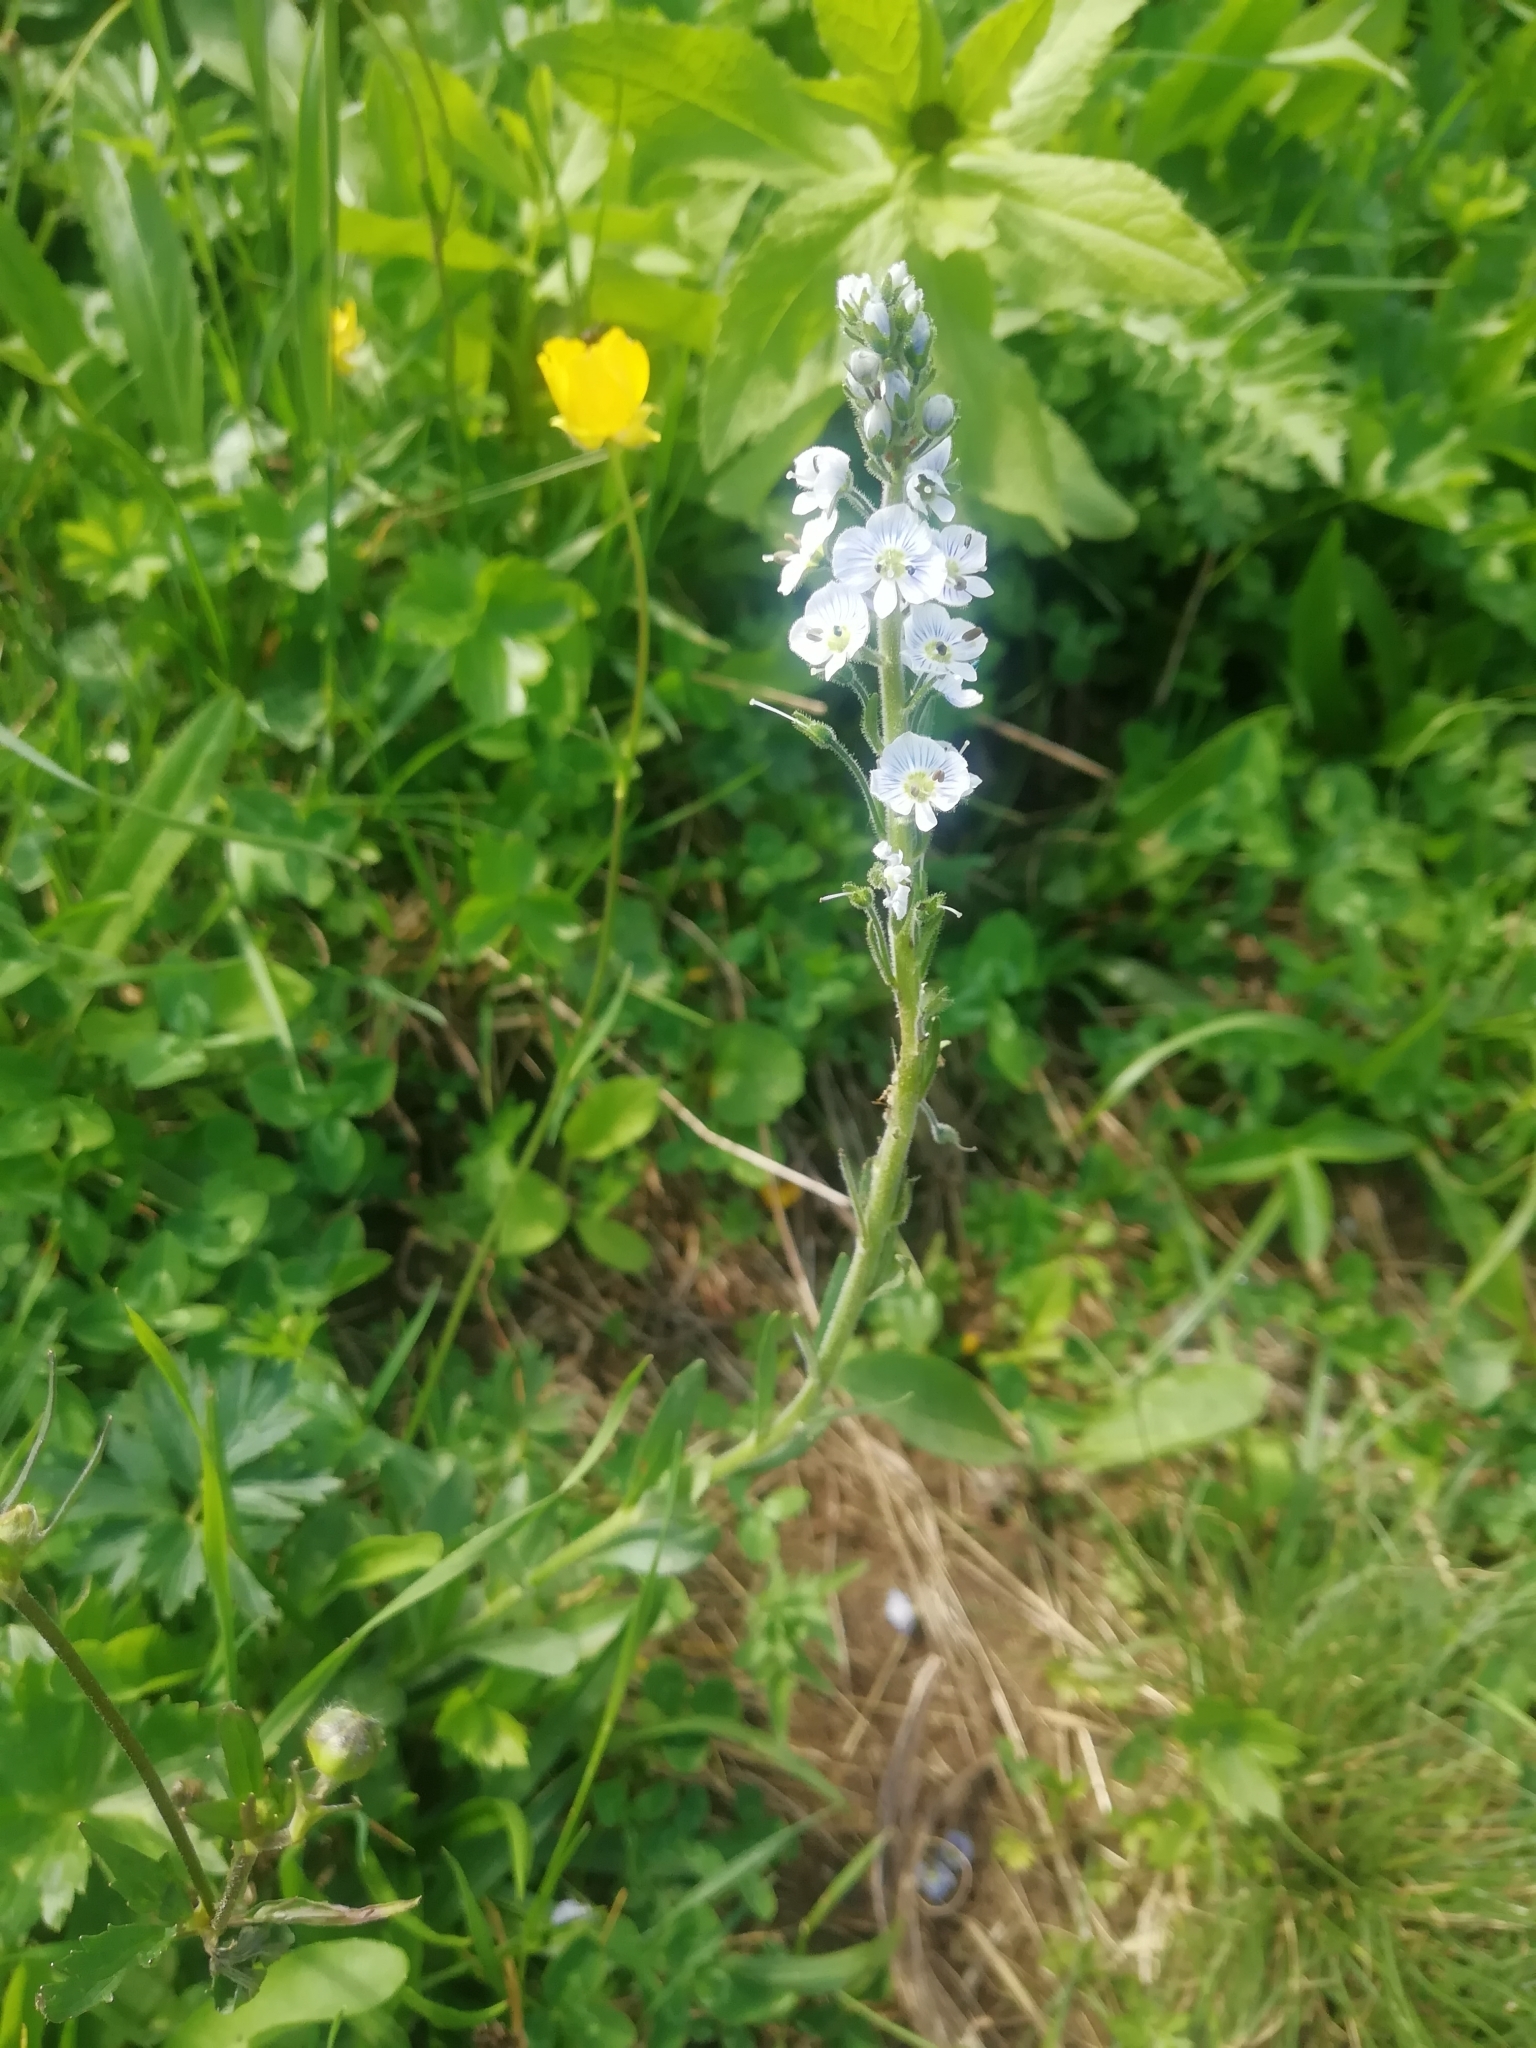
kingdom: Plantae
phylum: Tracheophyta
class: Magnoliopsida
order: Lamiales
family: Plantaginaceae
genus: Veronica
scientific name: Veronica gentianoides
